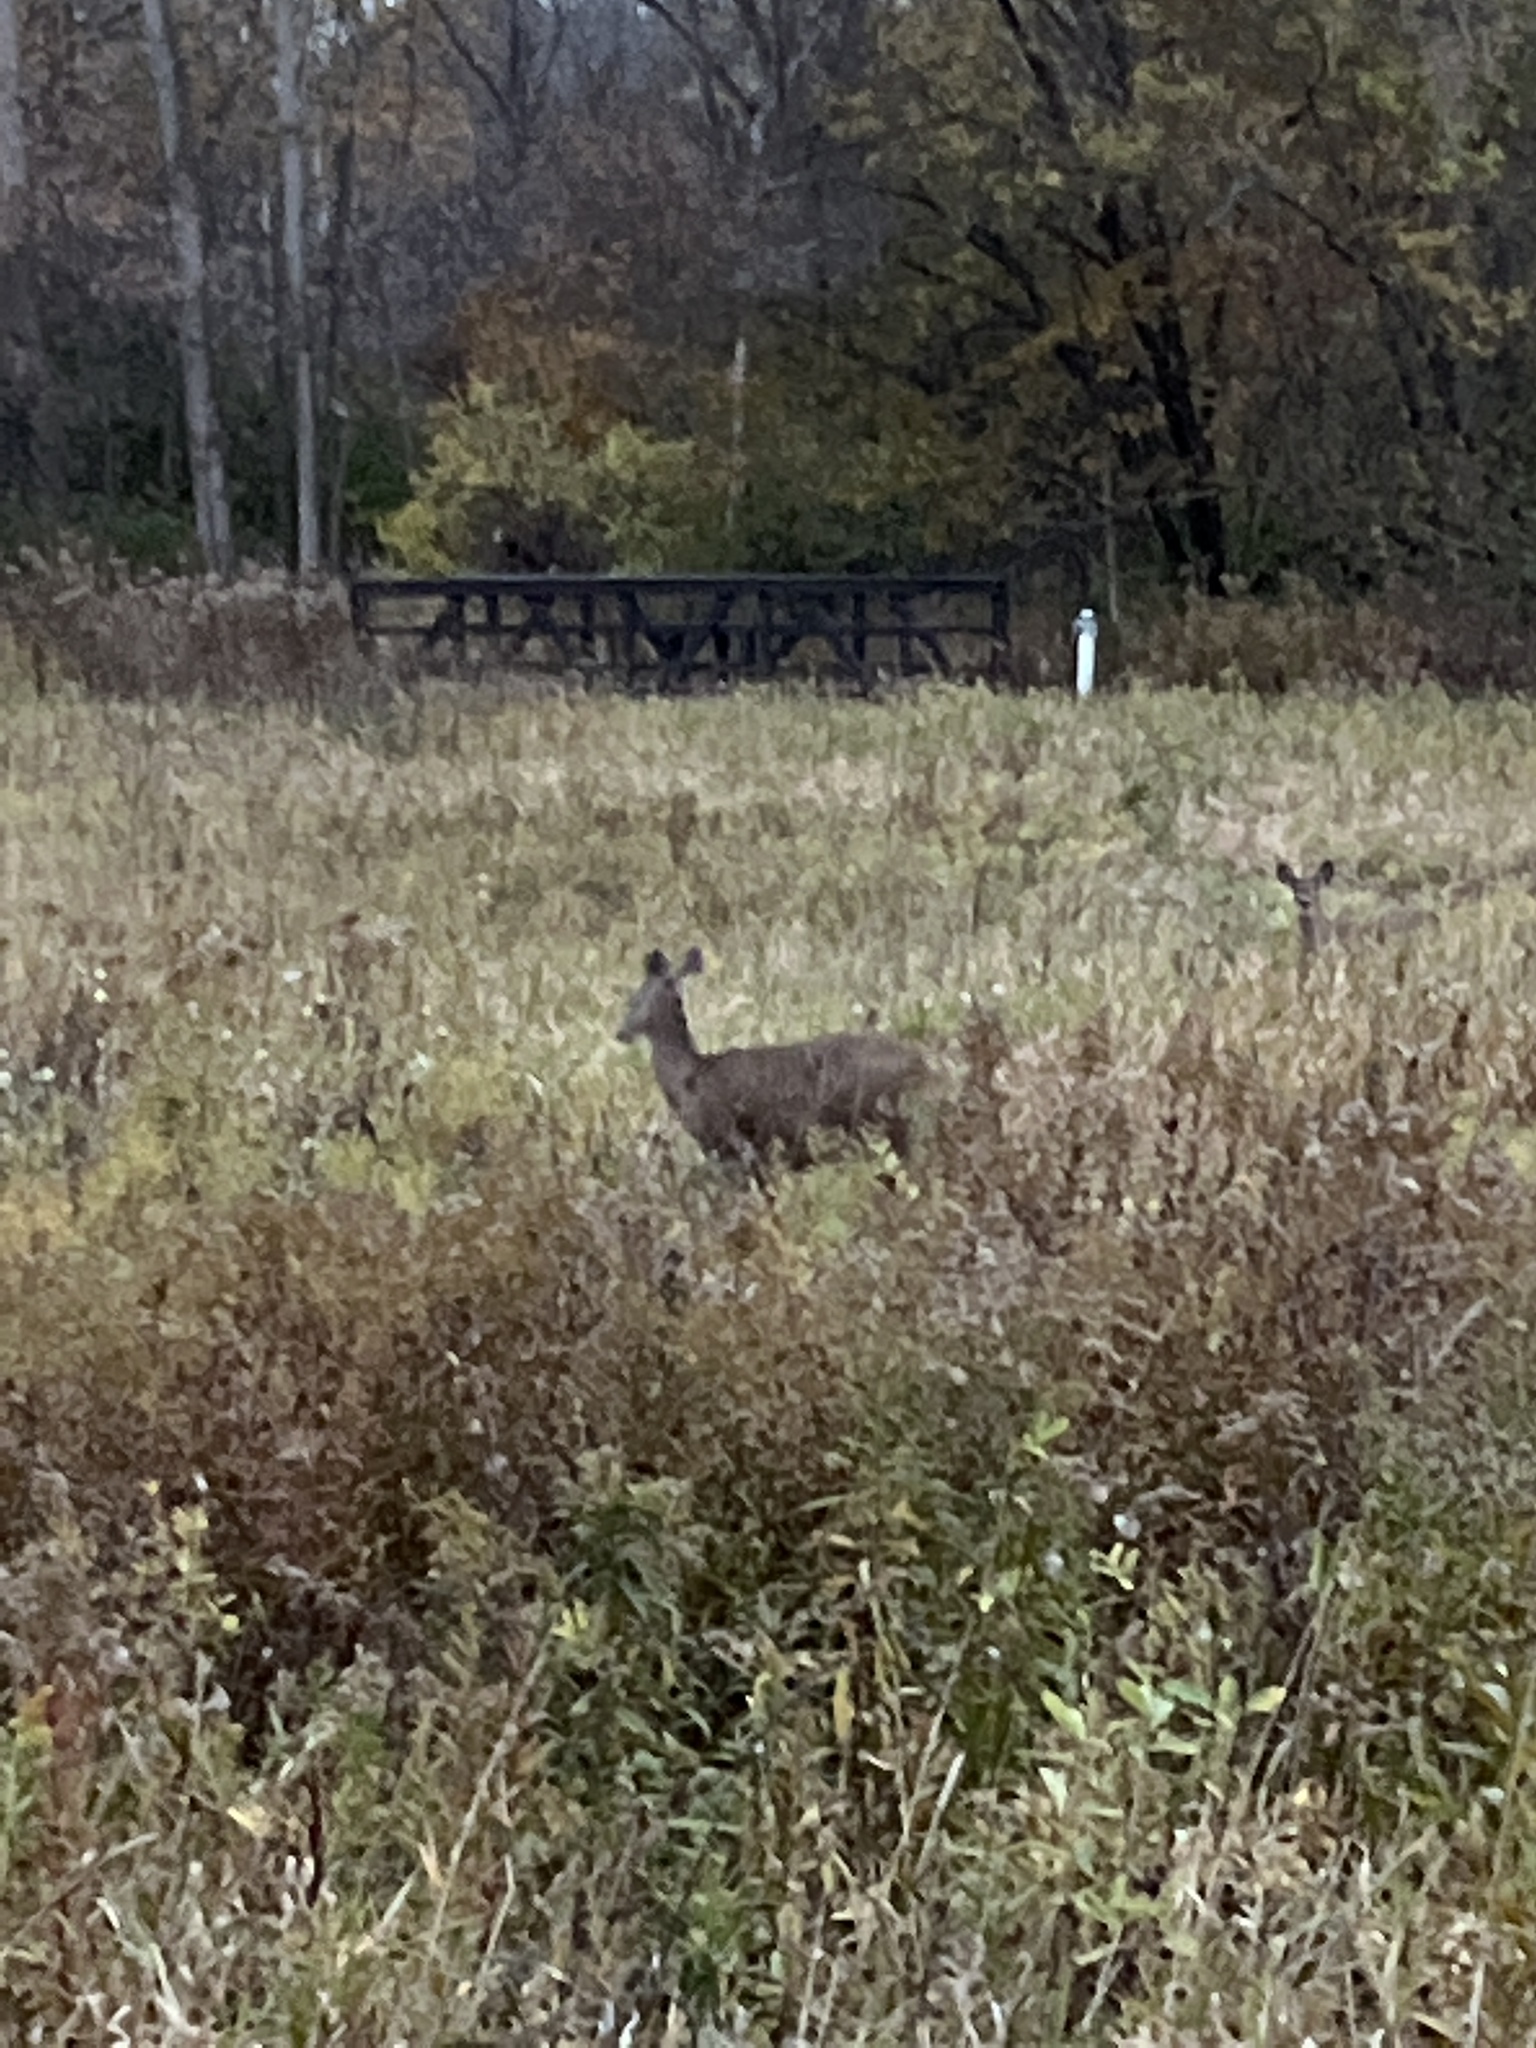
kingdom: Animalia
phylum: Chordata
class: Mammalia
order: Artiodactyla
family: Cervidae
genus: Odocoileus
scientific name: Odocoileus virginianus
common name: White-tailed deer
